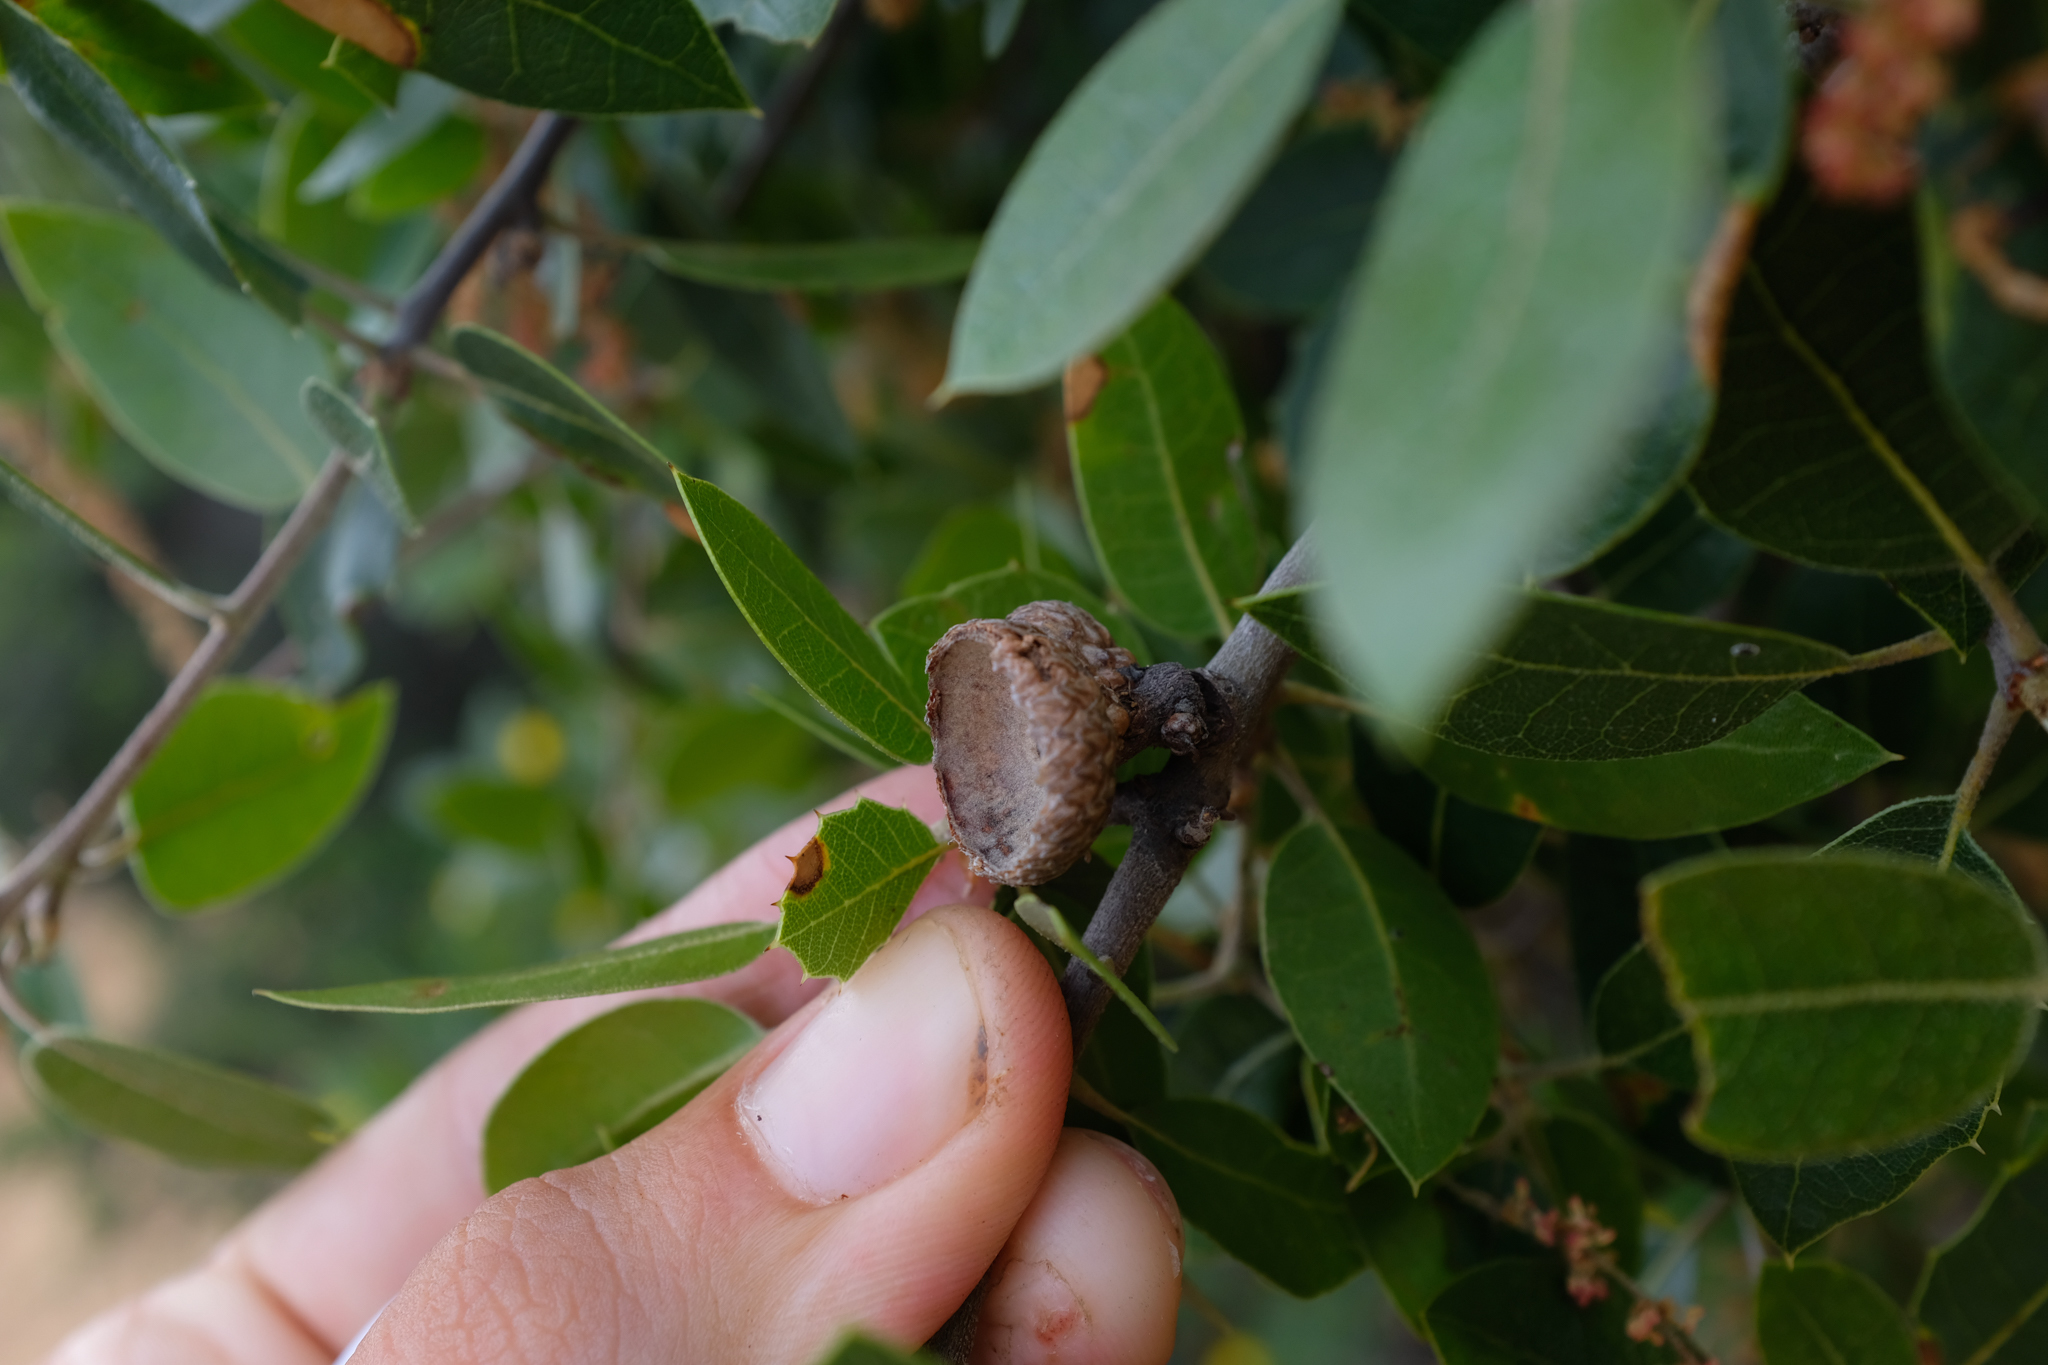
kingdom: Plantae
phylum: Tracheophyta
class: Magnoliopsida
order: Fagales
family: Fagaceae
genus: Quercus
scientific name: Quercus wislizeni
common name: Interior live oak
